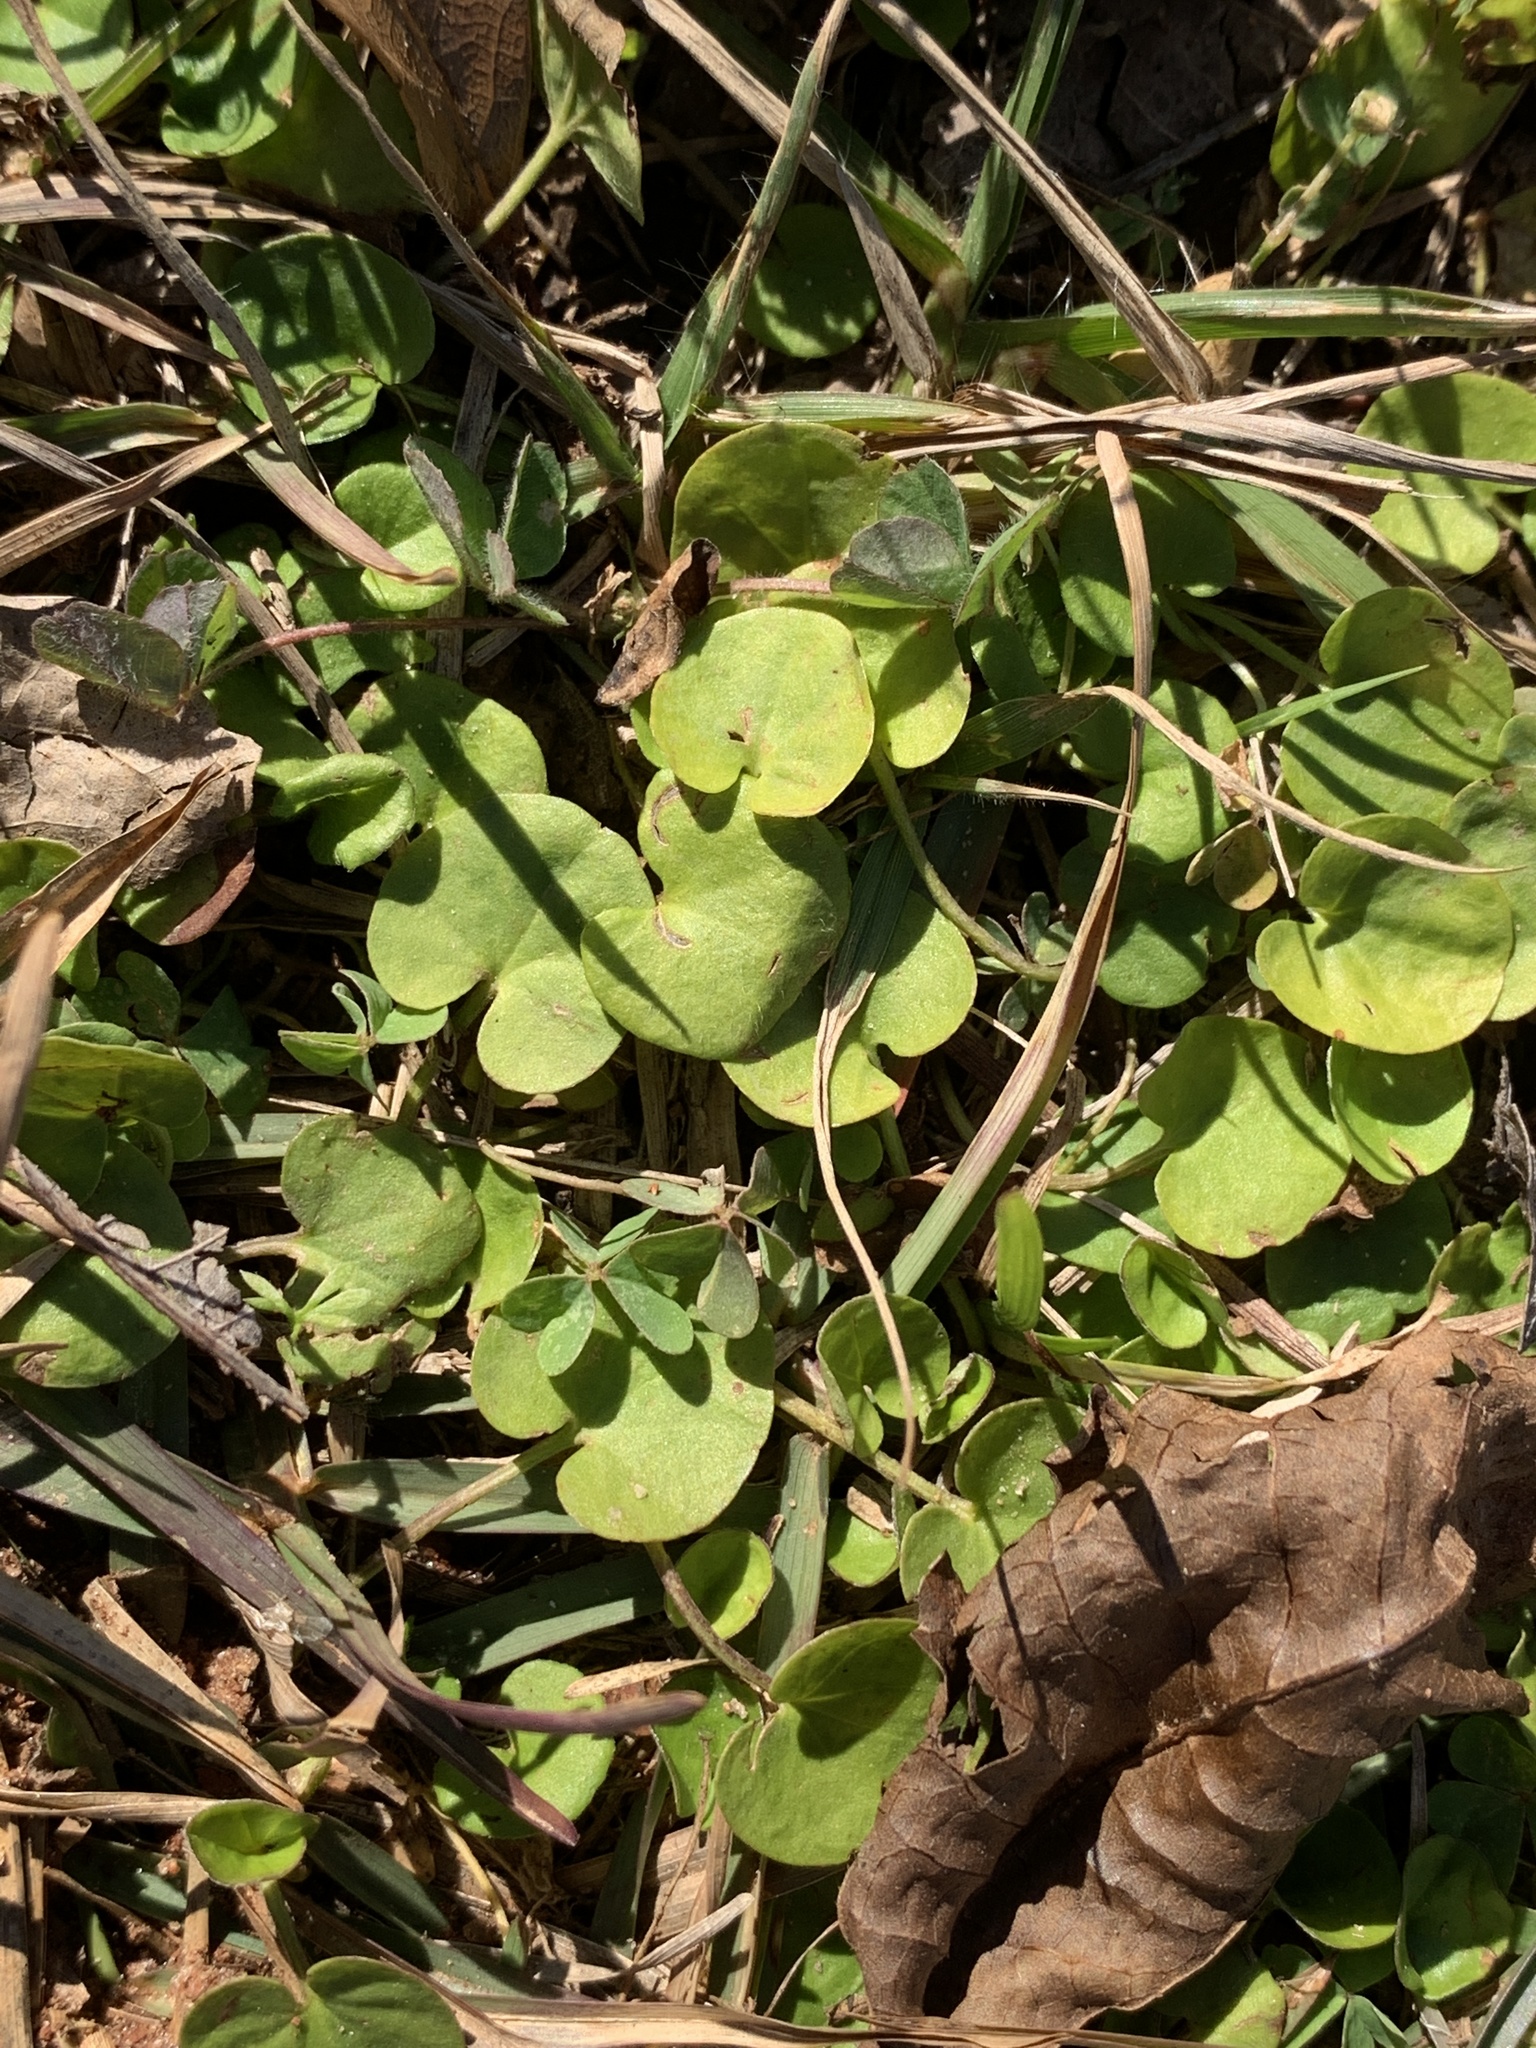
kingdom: Plantae
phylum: Tracheophyta
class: Magnoliopsida
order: Solanales
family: Convolvulaceae
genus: Dichondra
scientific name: Dichondra carolinensis
